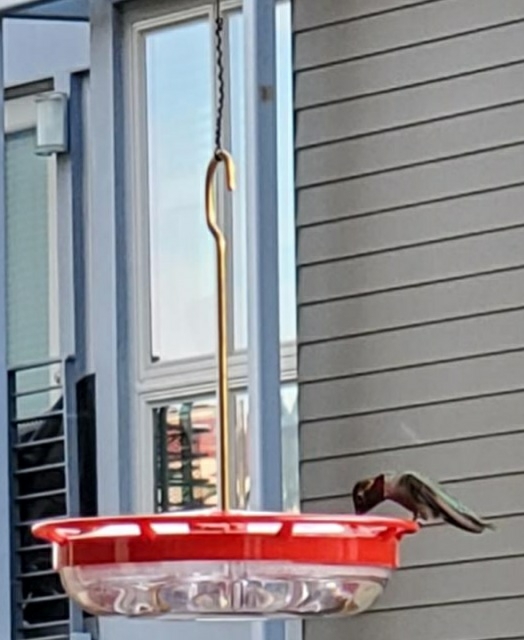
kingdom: Animalia
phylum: Chordata
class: Aves
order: Apodiformes
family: Trochilidae
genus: Calypte
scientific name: Calypte anna
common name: Anna's hummingbird
